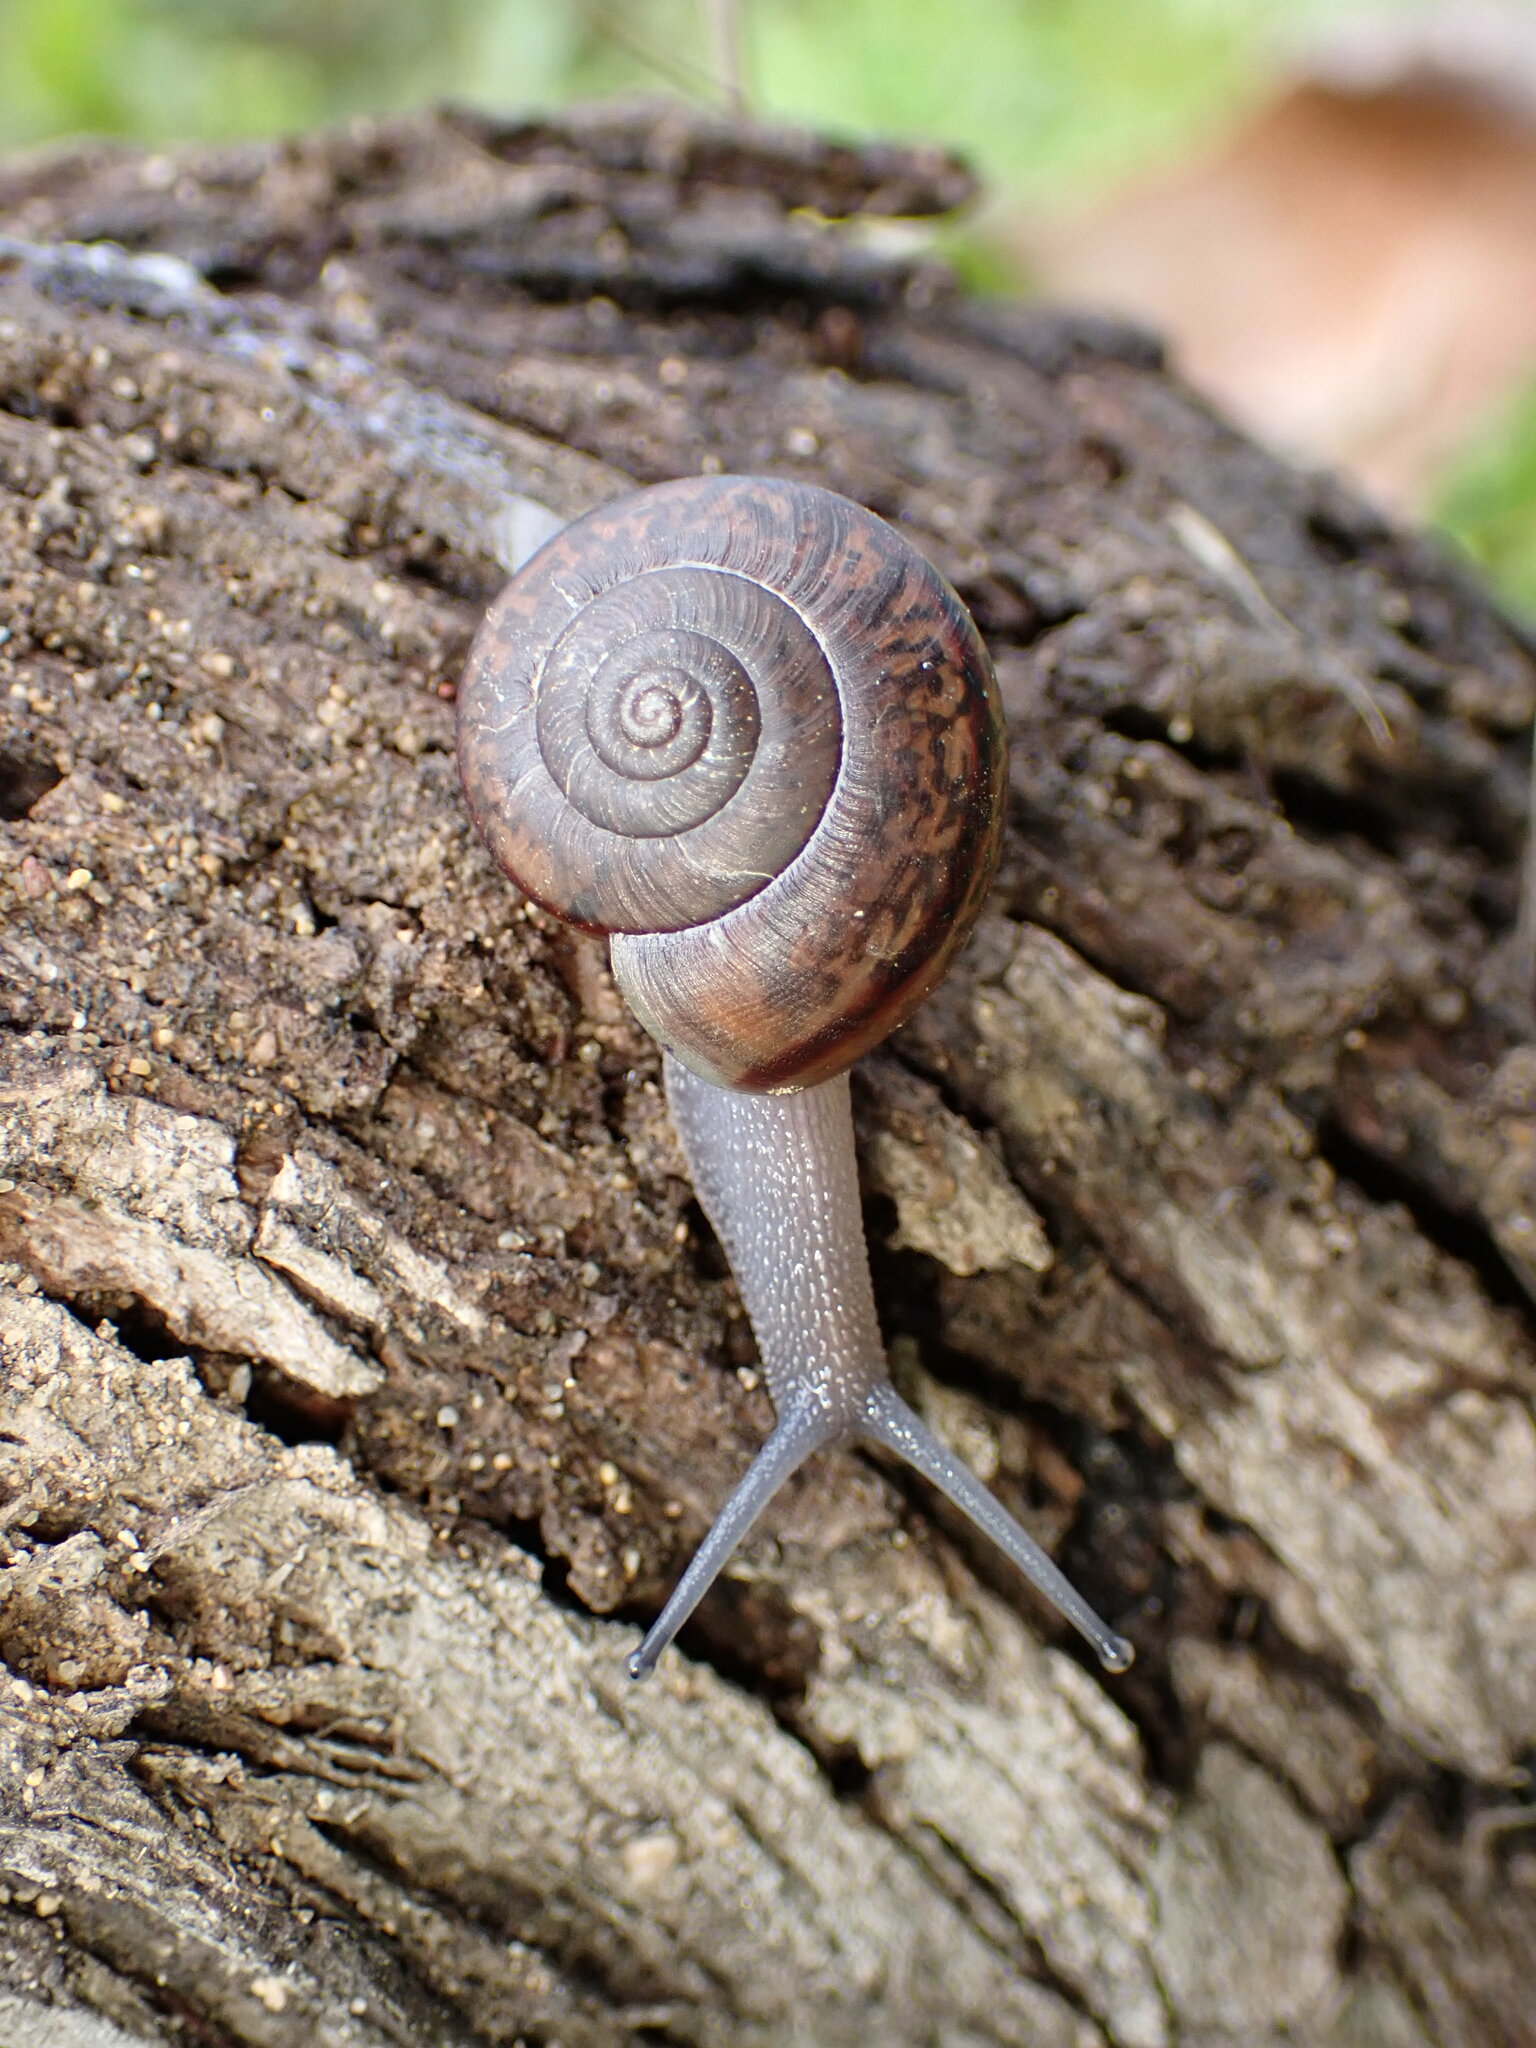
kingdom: Animalia
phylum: Mollusca
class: Gastropoda
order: Stylommatophora
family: Xanthonychidae
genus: Helminthoglypta
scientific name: Helminthoglypta phlyctaena
